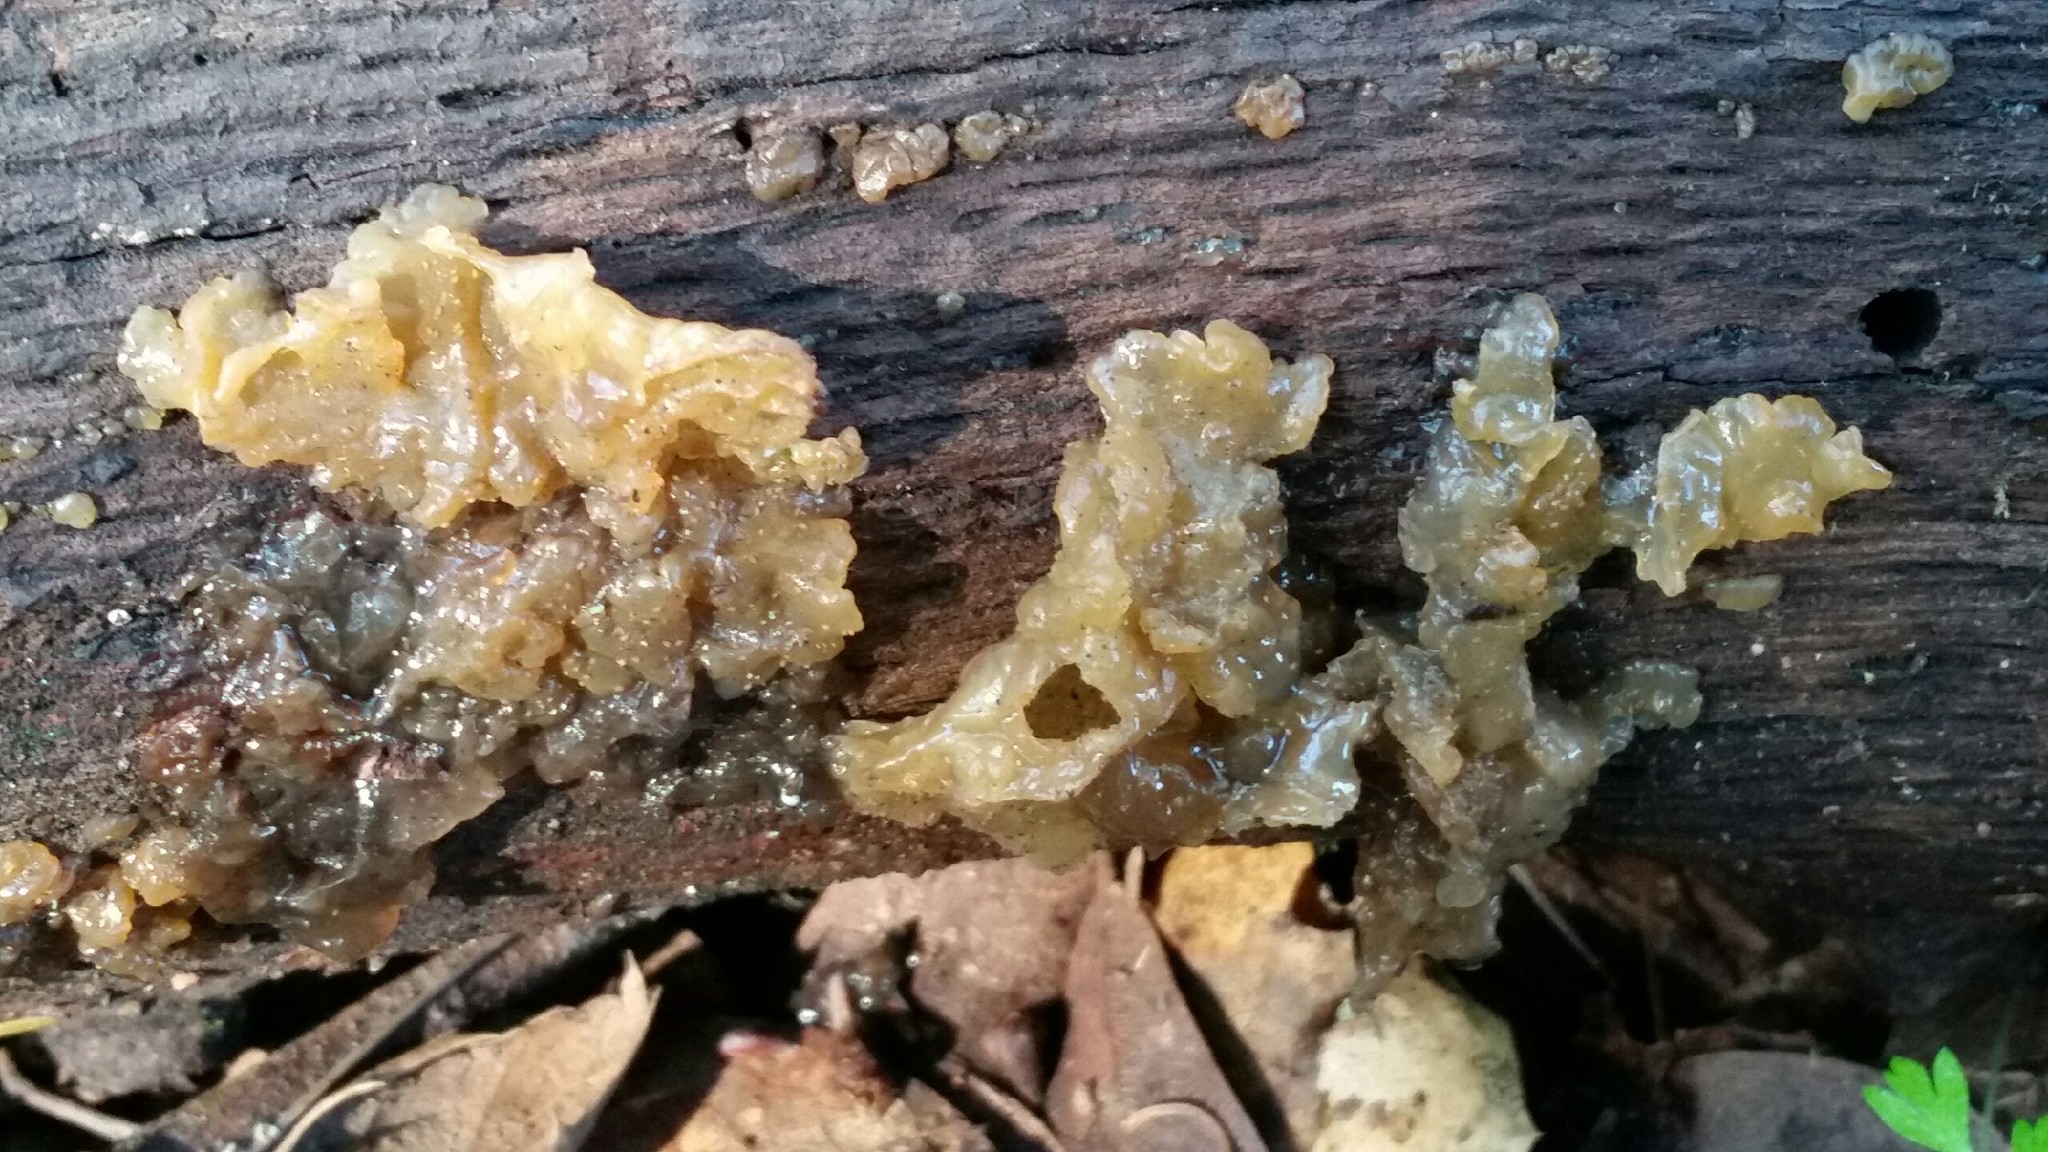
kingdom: Fungi
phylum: Basidiomycota
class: Agaricomycetes
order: Auriculariales
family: Hyaloriaceae
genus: Myxarium
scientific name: Myxarium nucleatum
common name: Crystal brain fungus
